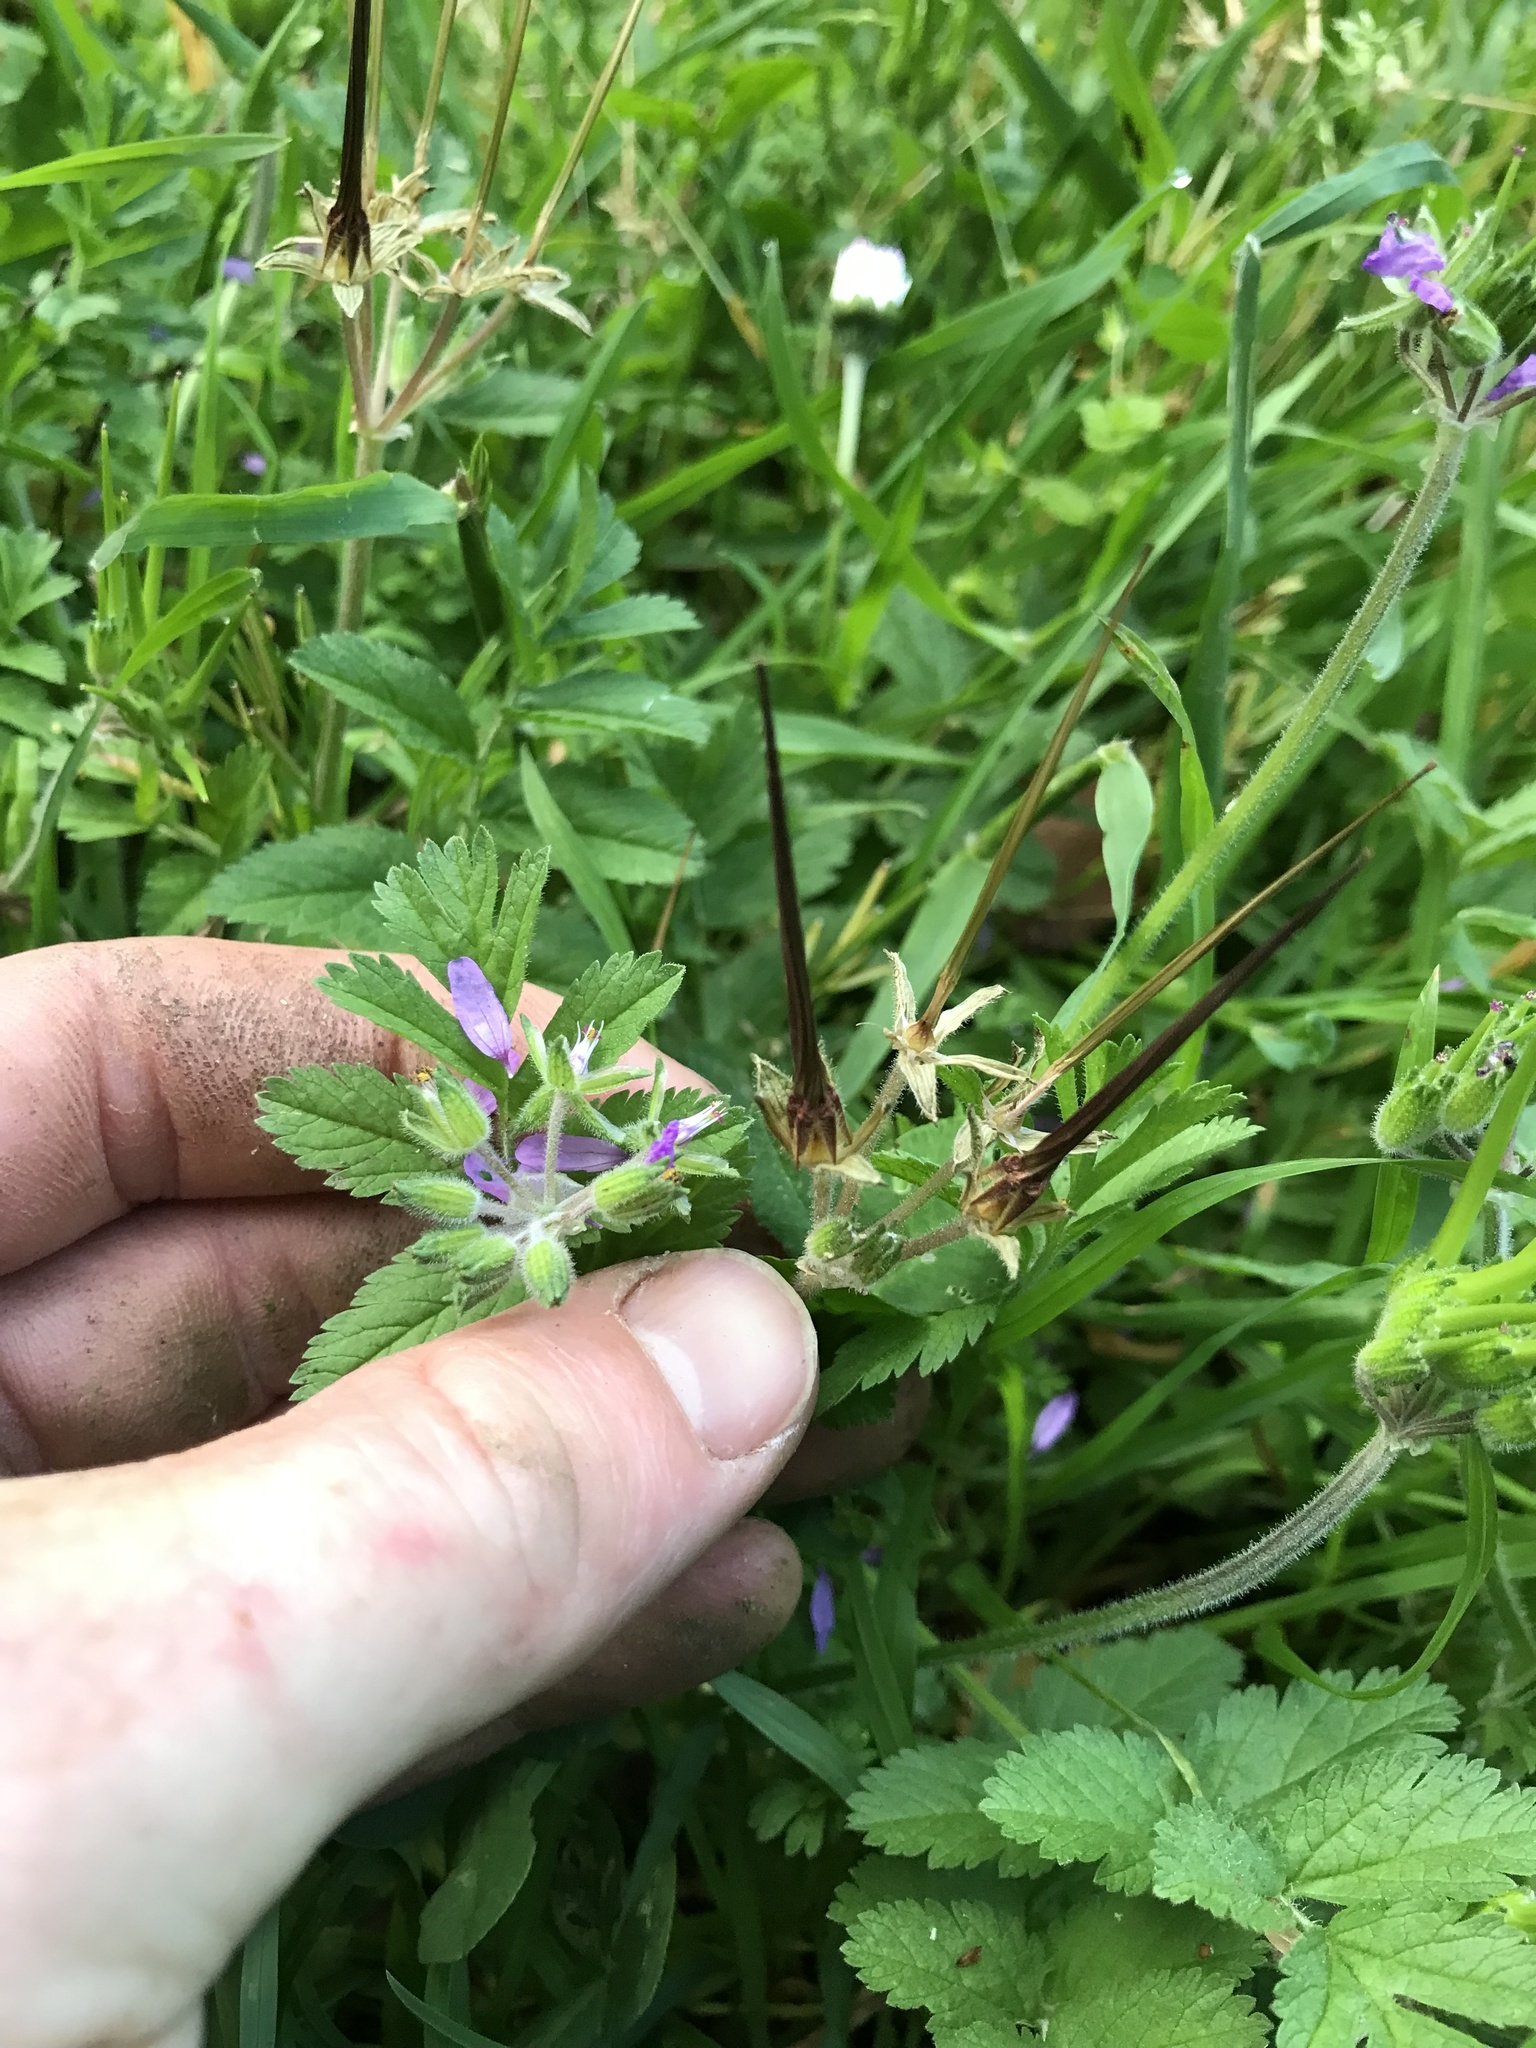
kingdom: Plantae
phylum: Tracheophyta
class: Magnoliopsida
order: Geraniales
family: Geraniaceae
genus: Erodium
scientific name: Erodium moschatum
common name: Musk stork's-bill
